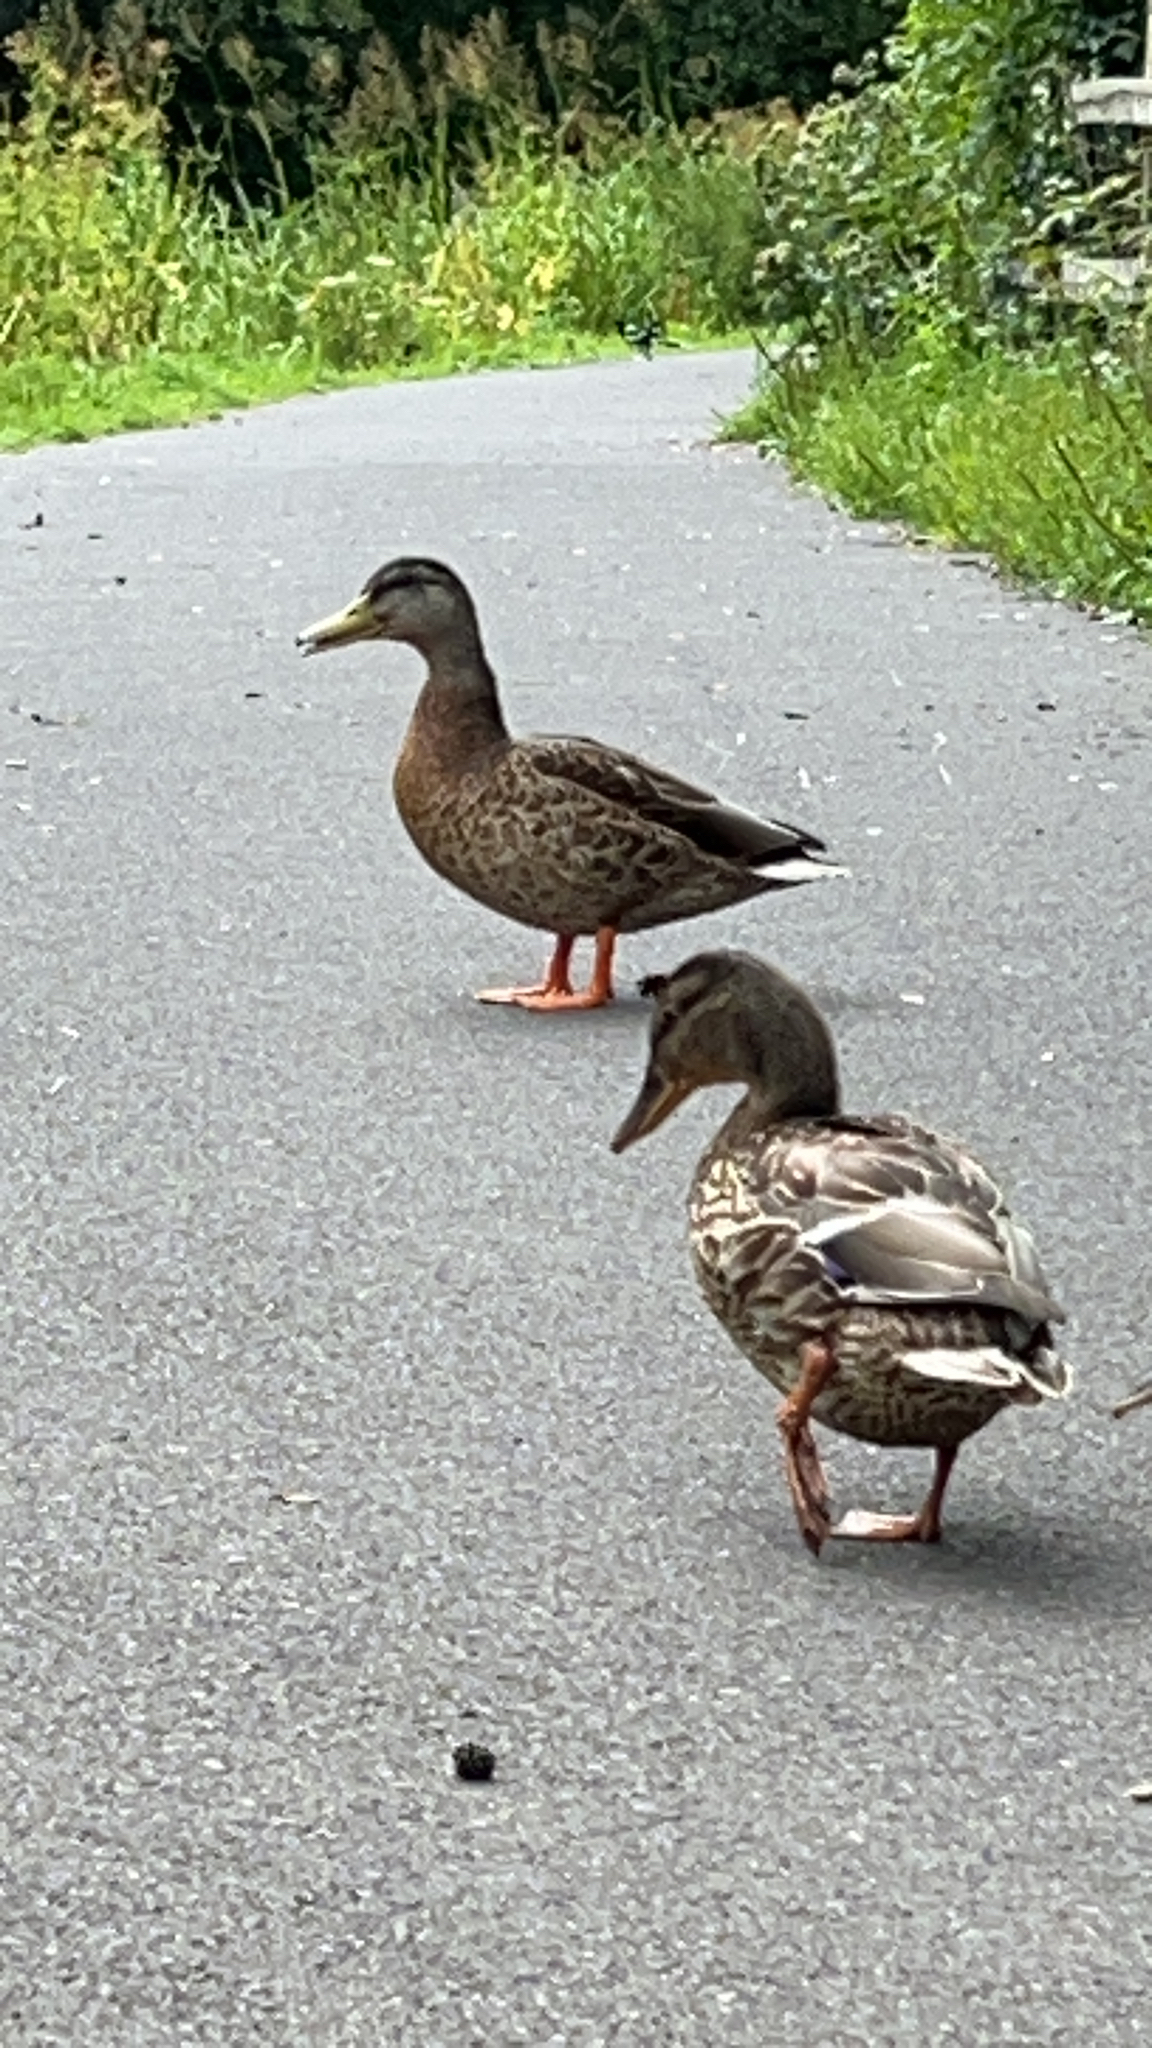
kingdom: Animalia
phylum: Chordata
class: Aves
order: Anseriformes
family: Anatidae
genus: Anas
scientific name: Anas platyrhynchos
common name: Mallard
